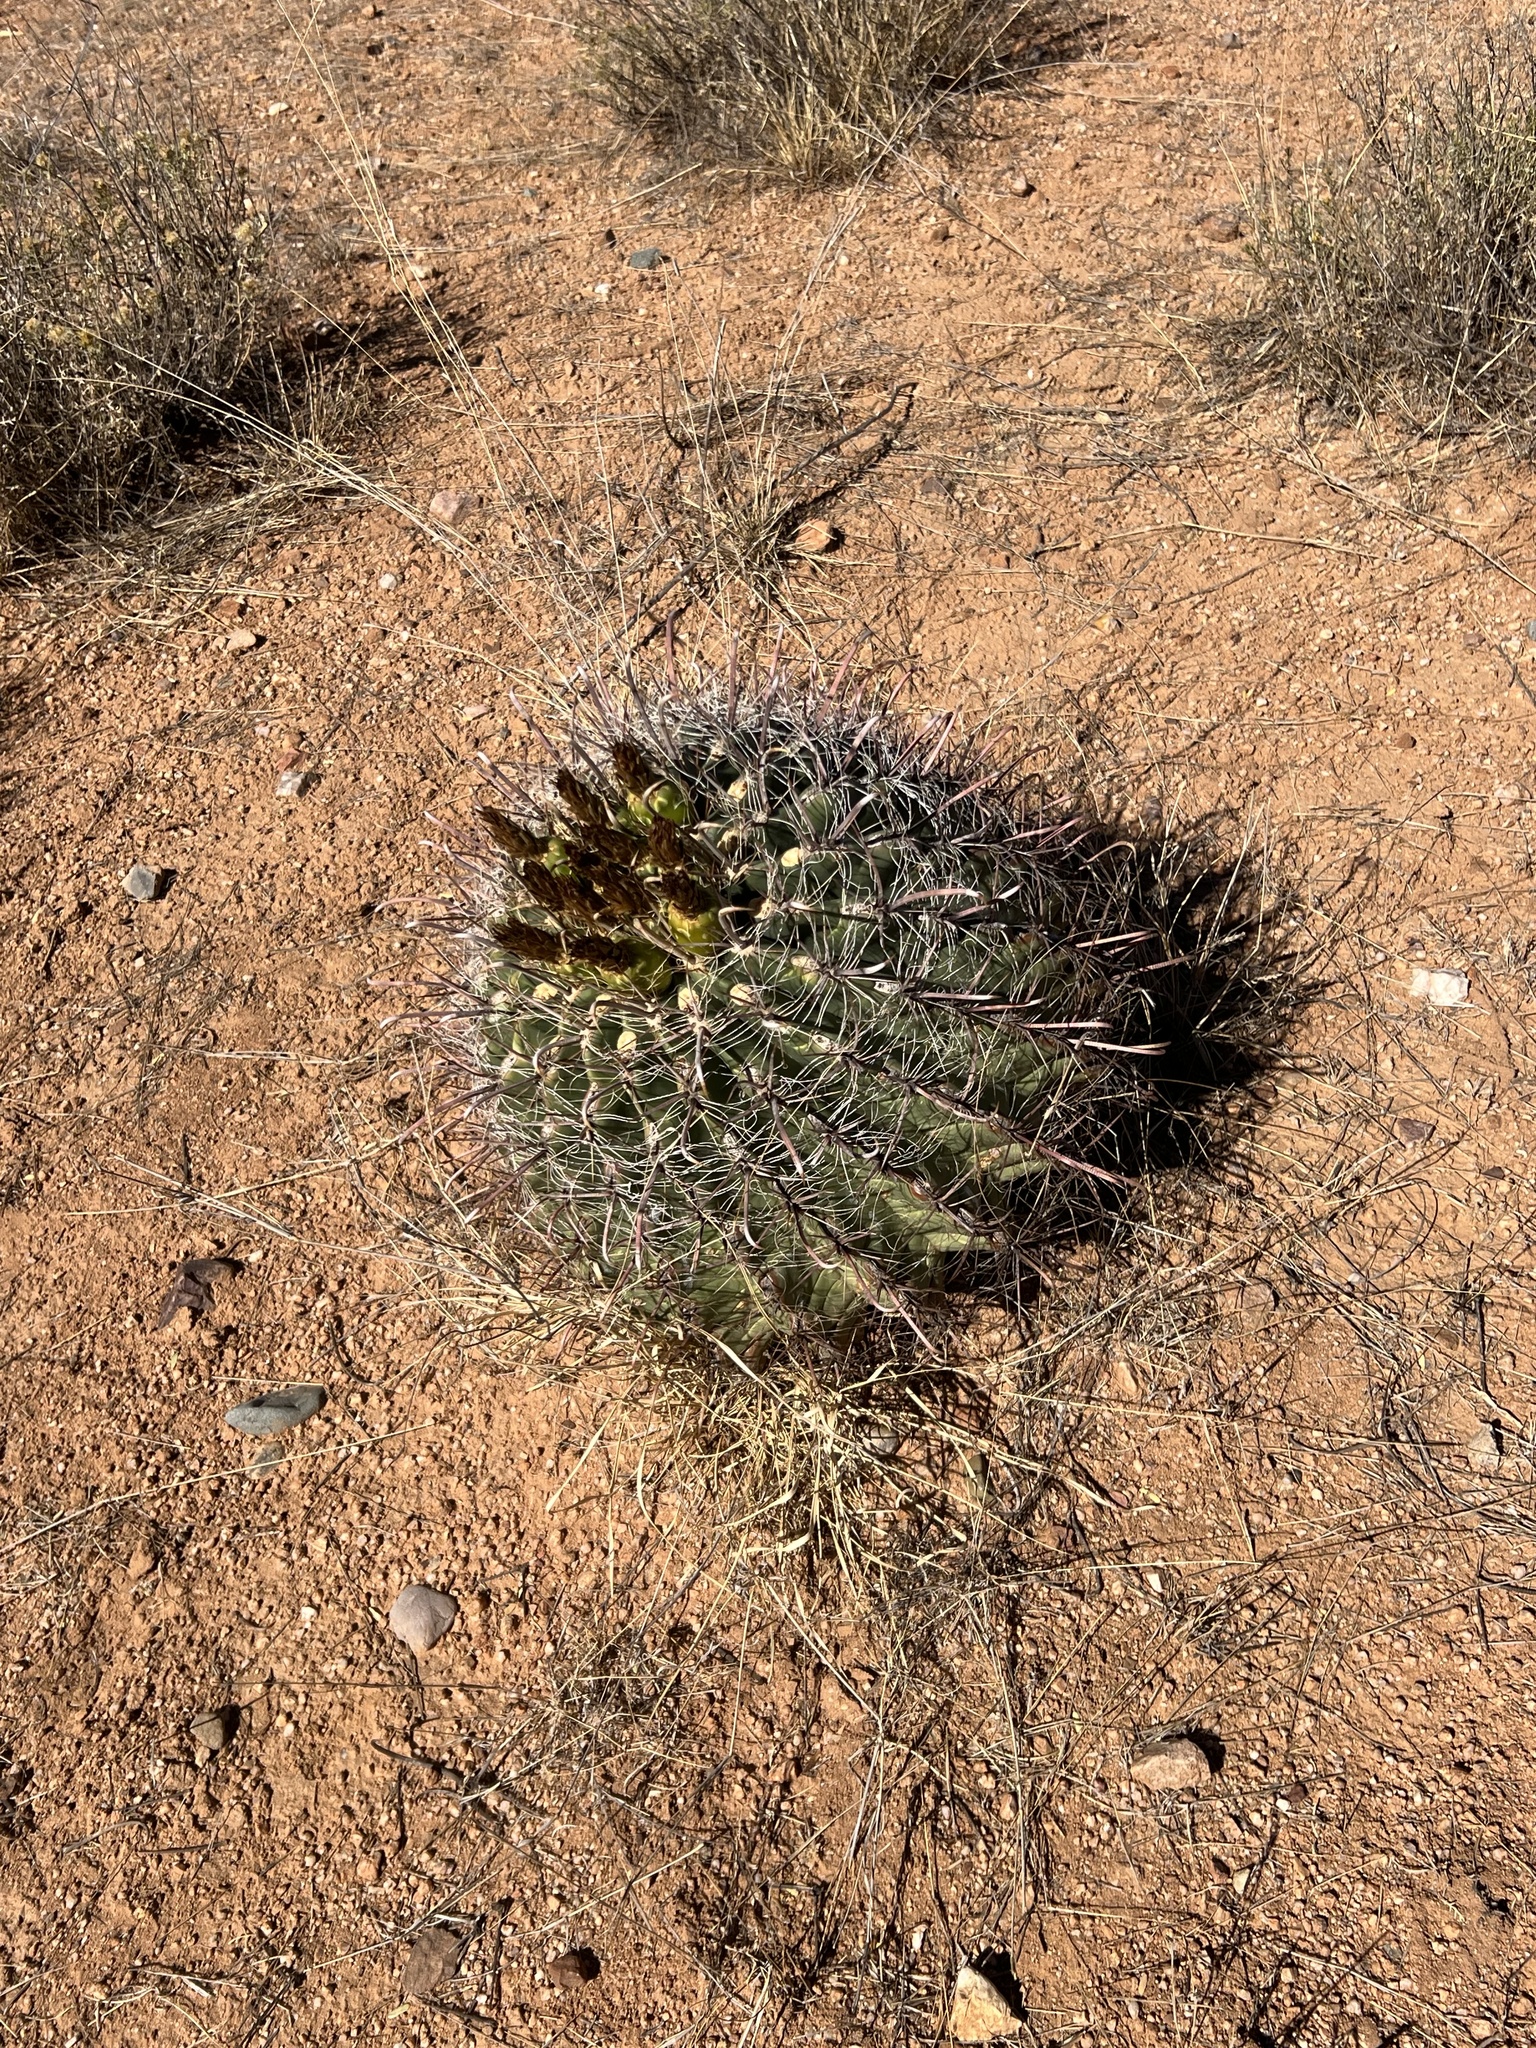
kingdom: Plantae
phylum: Tracheophyta
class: Magnoliopsida
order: Caryophyllales
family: Cactaceae
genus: Ferocactus
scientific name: Ferocactus wislizeni
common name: Candy barrel cactus
